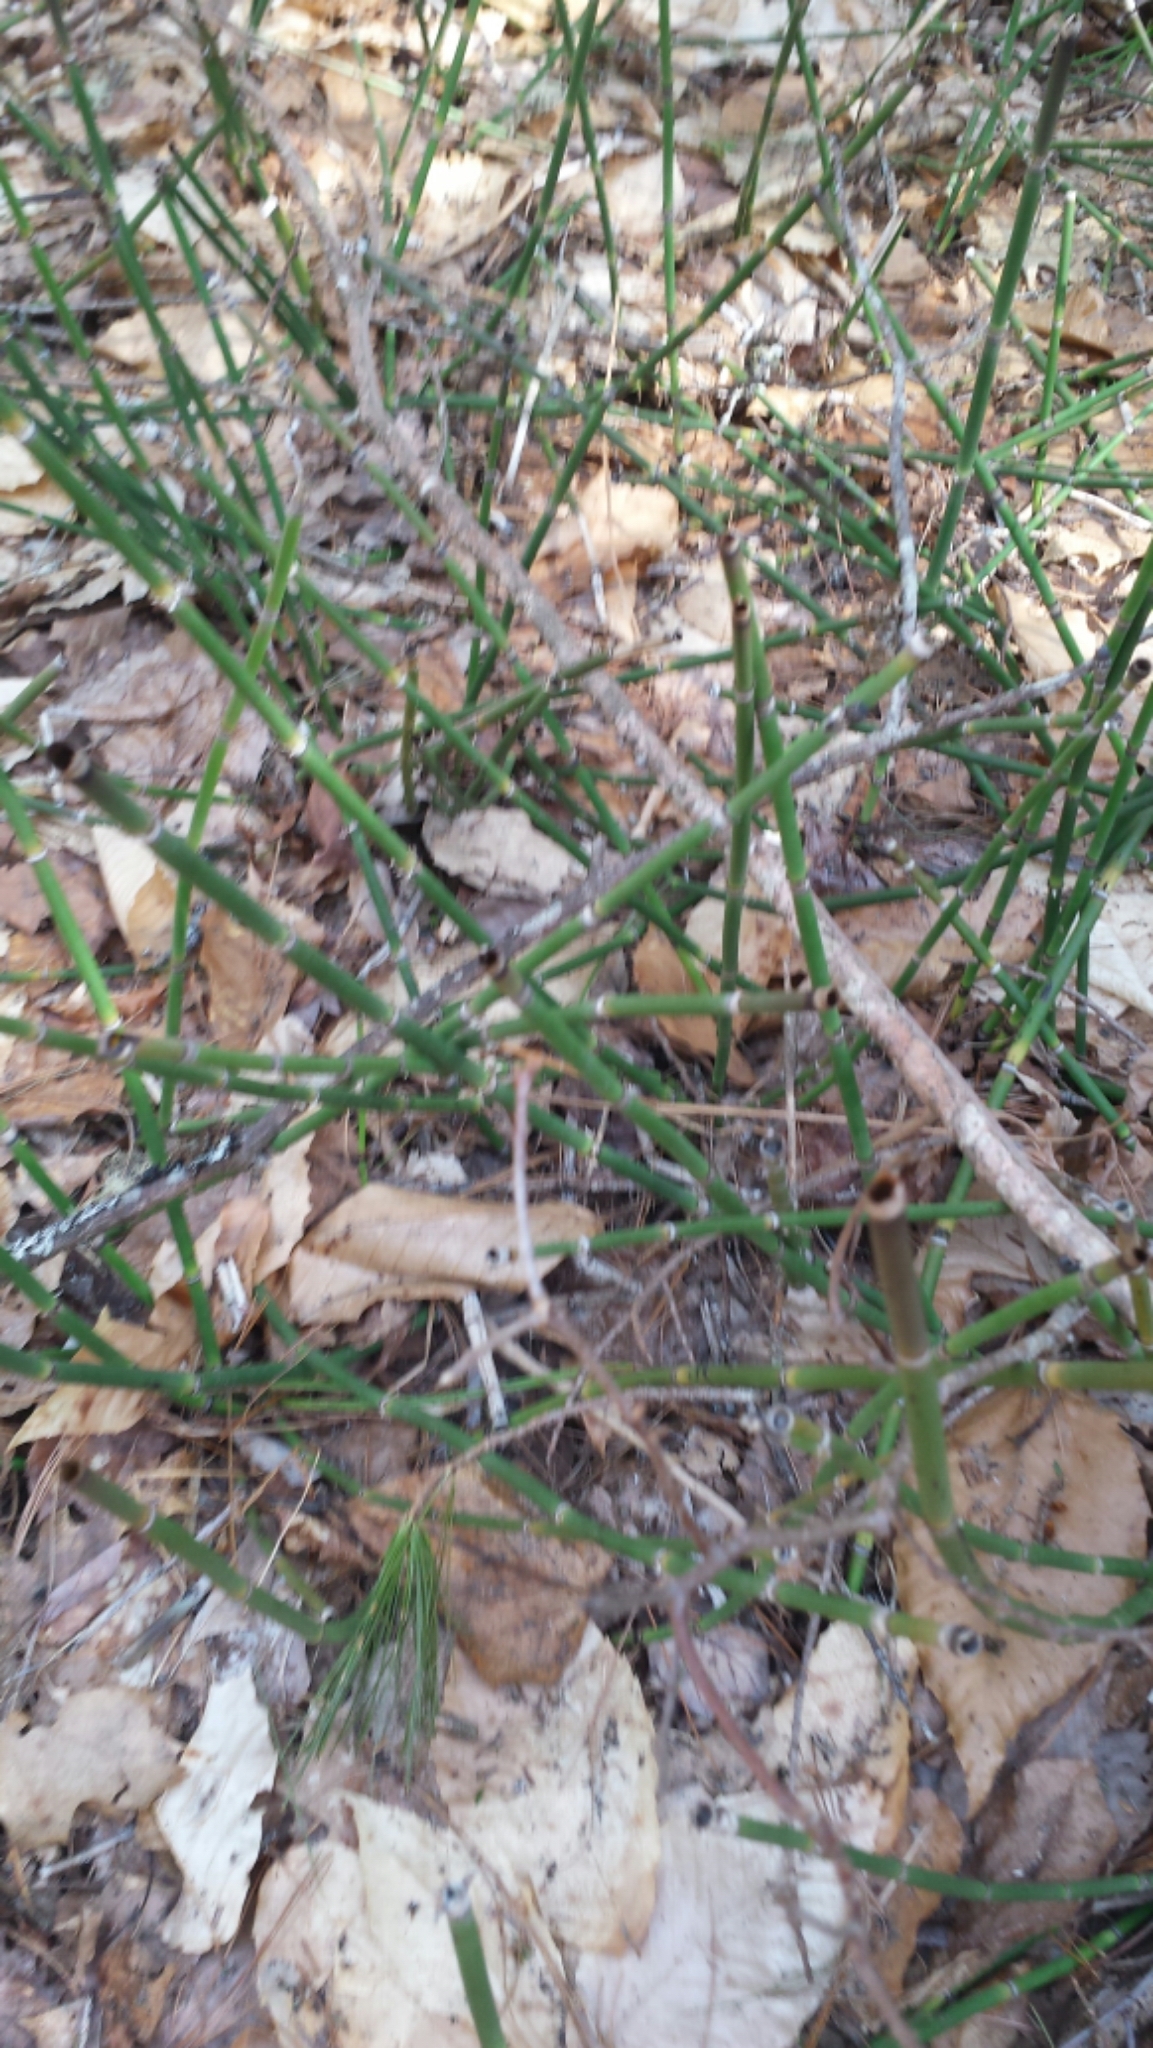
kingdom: Plantae
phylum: Tracheophyta
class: Polypodiopsida
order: Equisetales
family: Equisetaceae
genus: Equisetum
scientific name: Equisetum hyemale
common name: Rough horsetail
